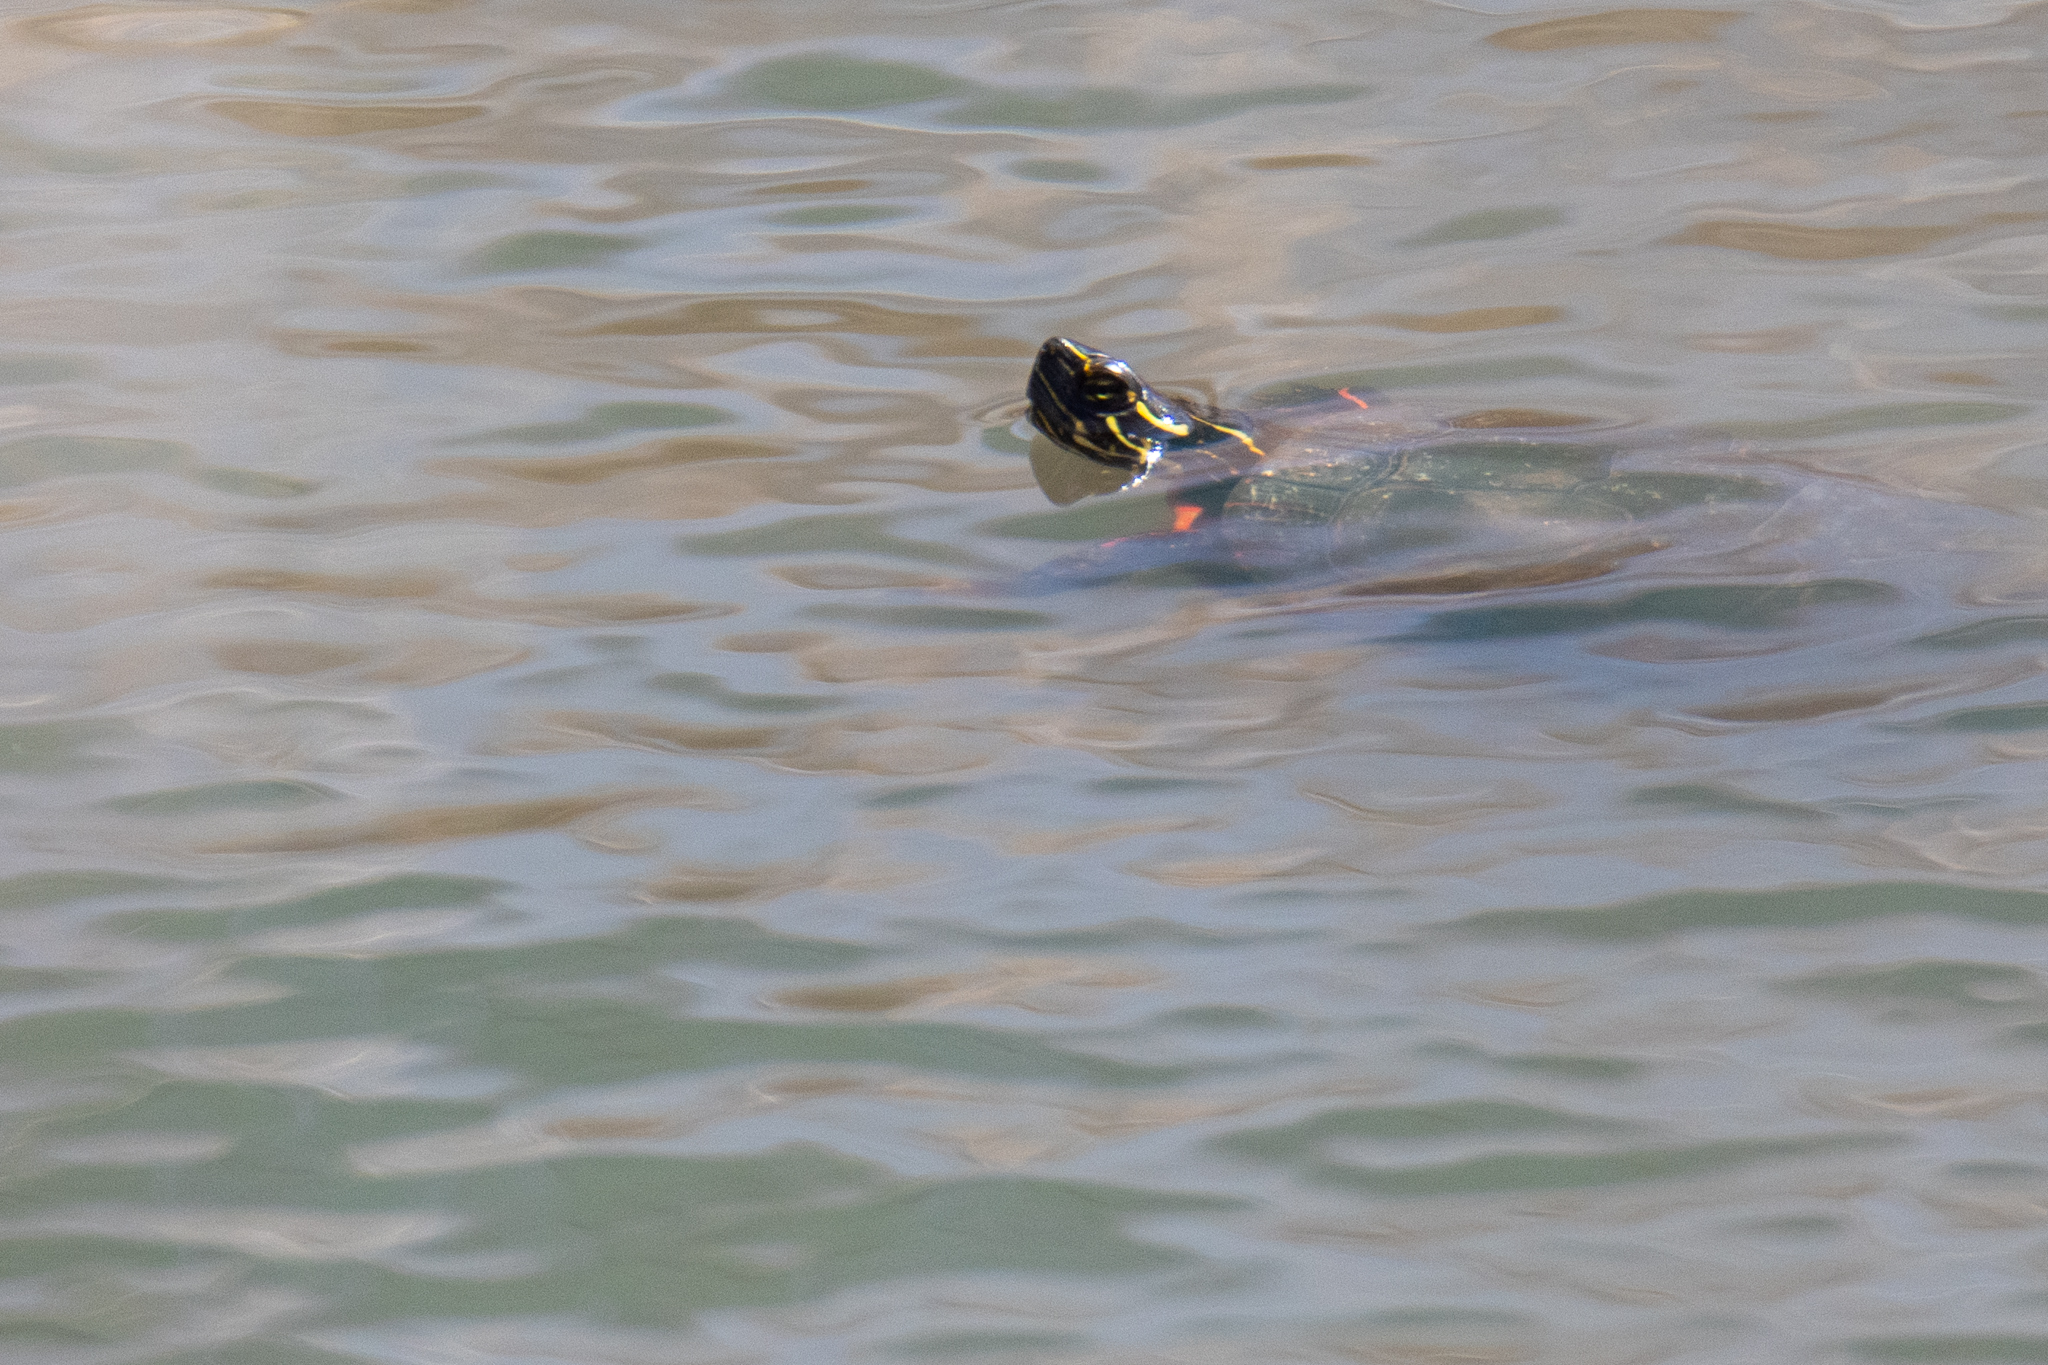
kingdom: Animalia
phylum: Chordata
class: Testudines
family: Emydidae
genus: Chrysemys
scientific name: Chrysemys picta
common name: Painted turtle
